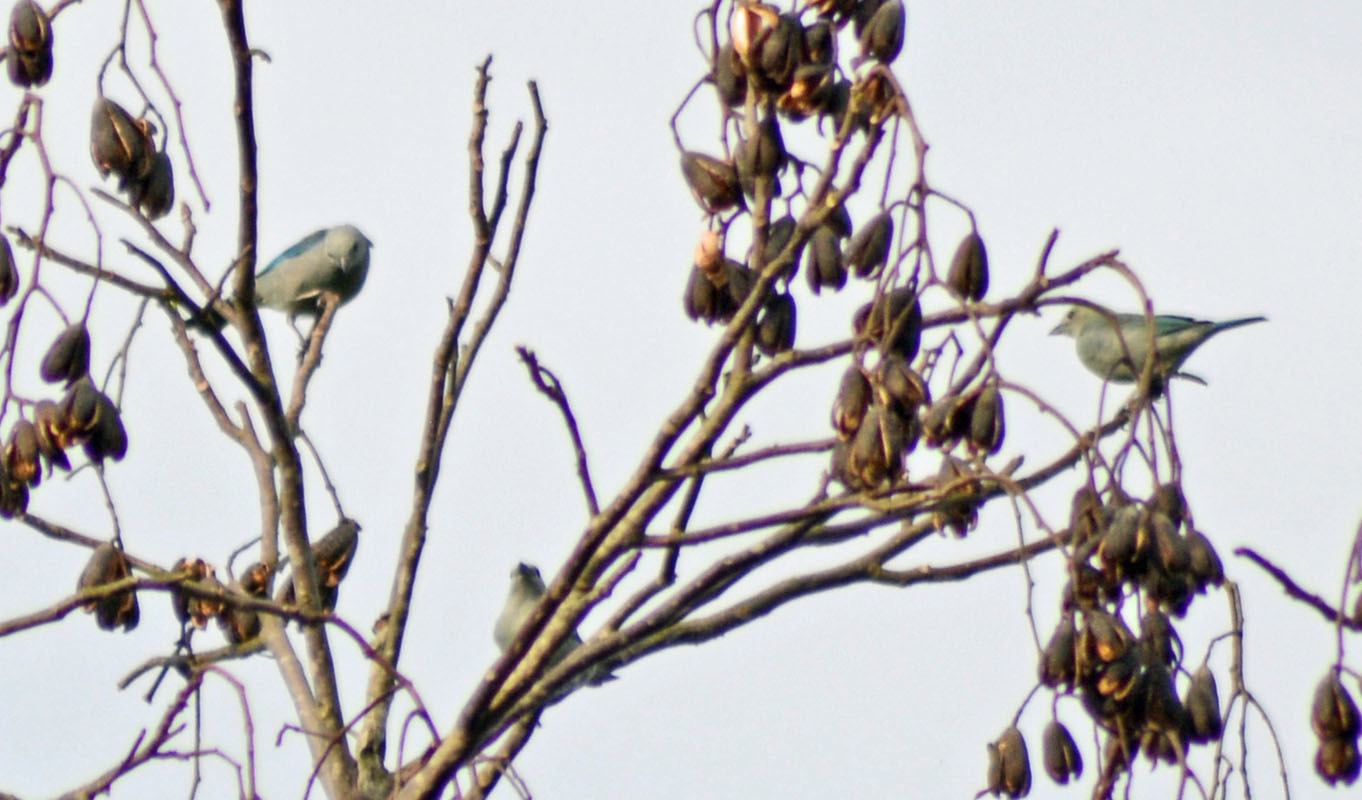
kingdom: Animalia
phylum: Chordata
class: Aves
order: Passeriformes
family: Thraupidae
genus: Thraupis
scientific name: Thraupis episcopus
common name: Blue-grey tanager
